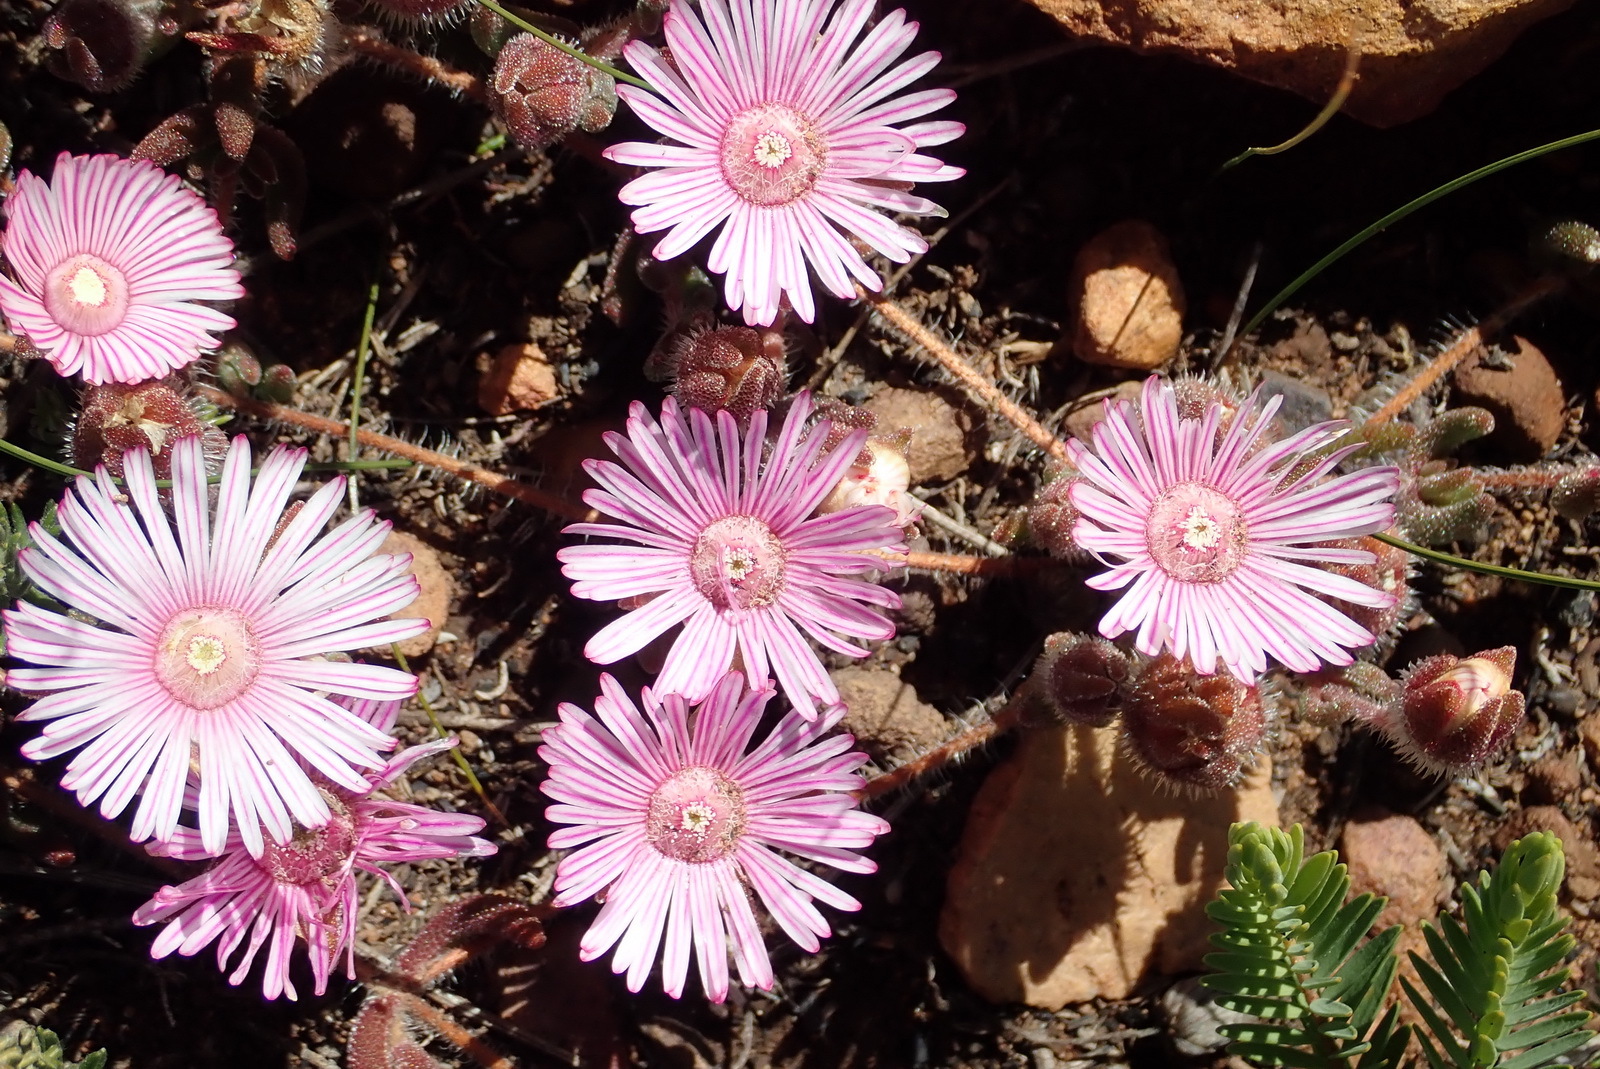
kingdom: Plantae
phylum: Tracheophyta
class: Magnoliopsida
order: Caryophyllales
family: Aizoaceae
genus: Drosanthemum
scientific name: Drosanthemum striatum
